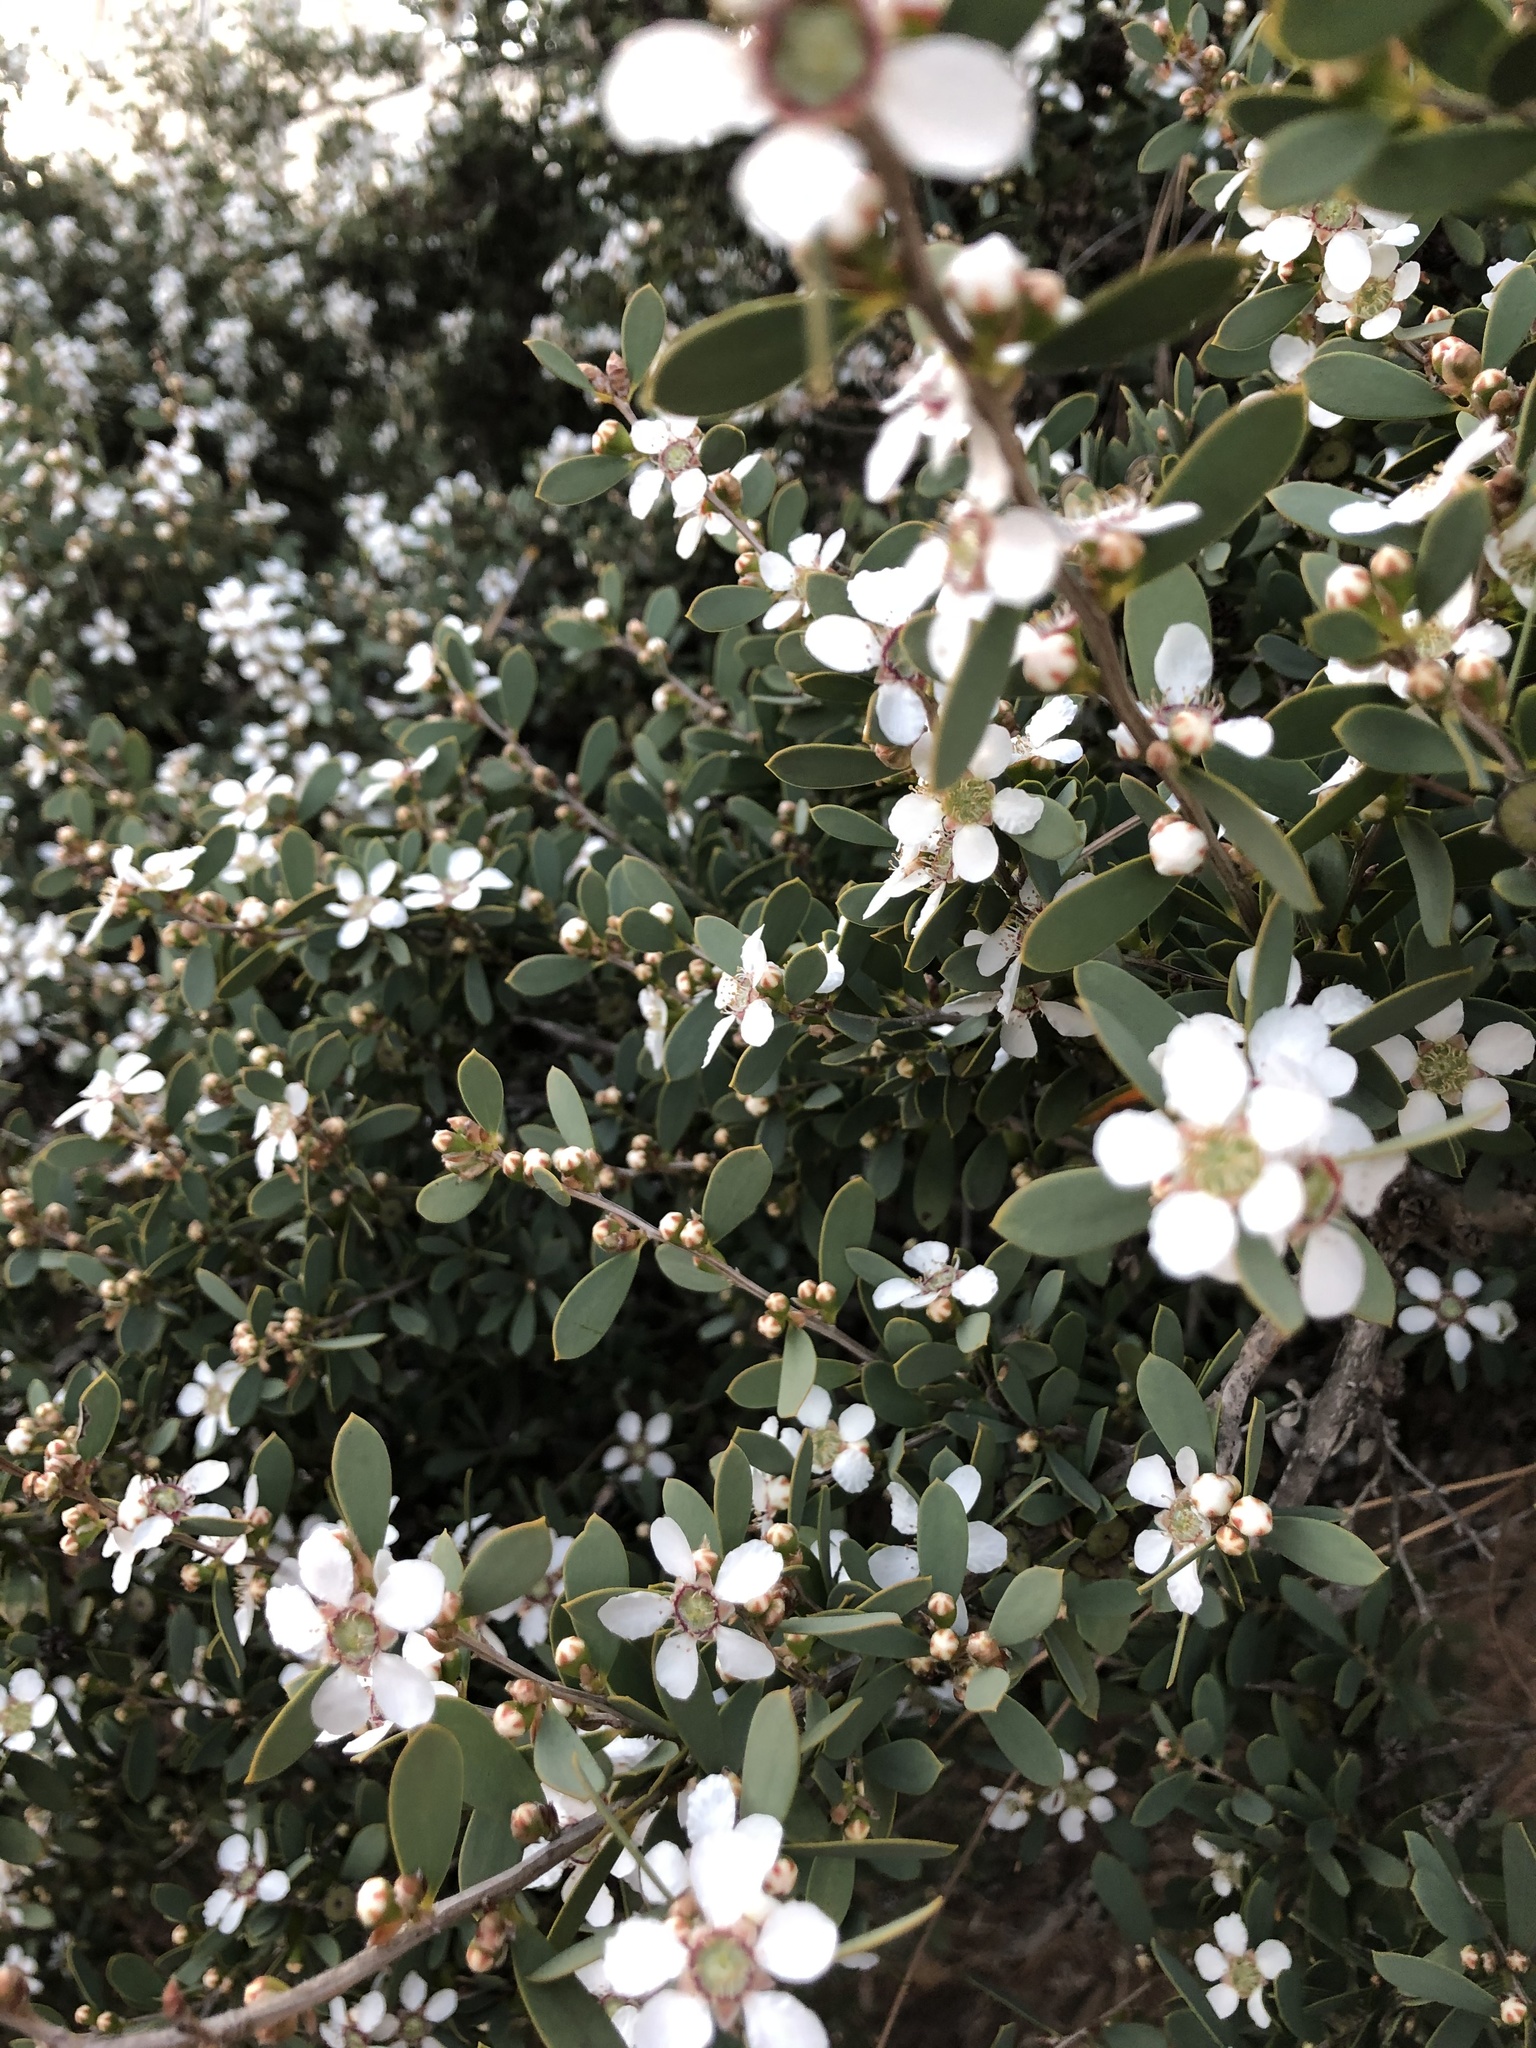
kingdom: Plantae
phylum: Tracheophyta
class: Magnoliopsida
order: Myrtales
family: Myrtaceae
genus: Leptospermum
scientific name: Leptospermum laevigatum
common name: Australian teatree
